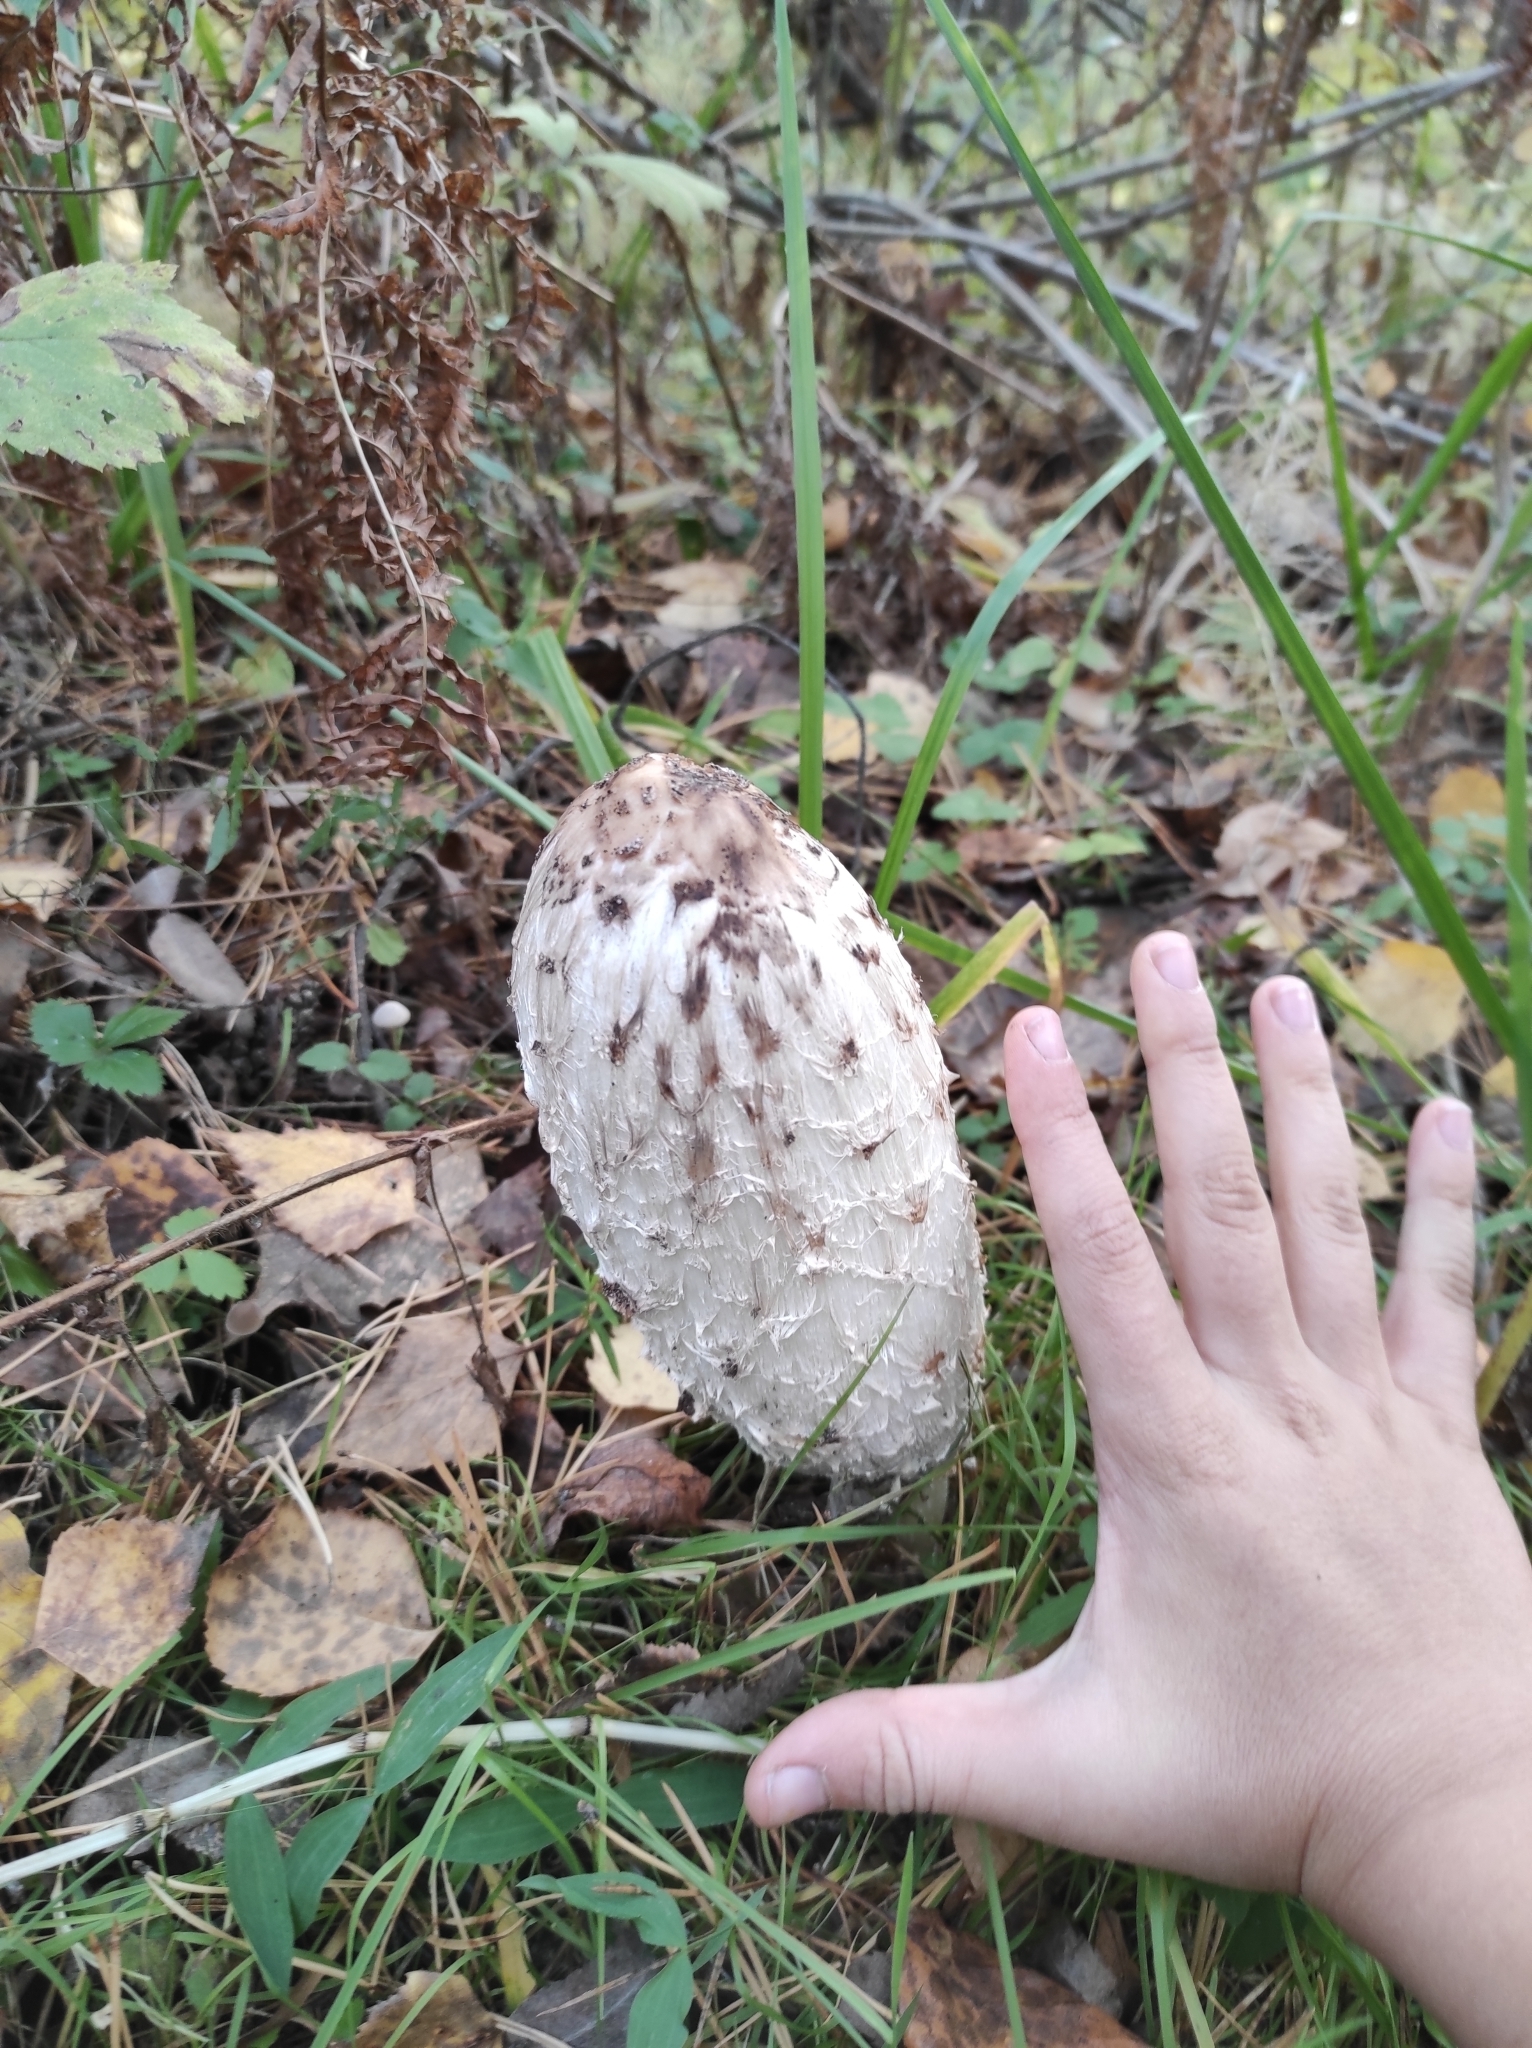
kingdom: Fungi
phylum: Basidiomycota
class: Agaricomycetes
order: Agaricales
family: Agaricaceae
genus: Coprinus
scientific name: Coprinus comatus
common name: Lawyer's wig
